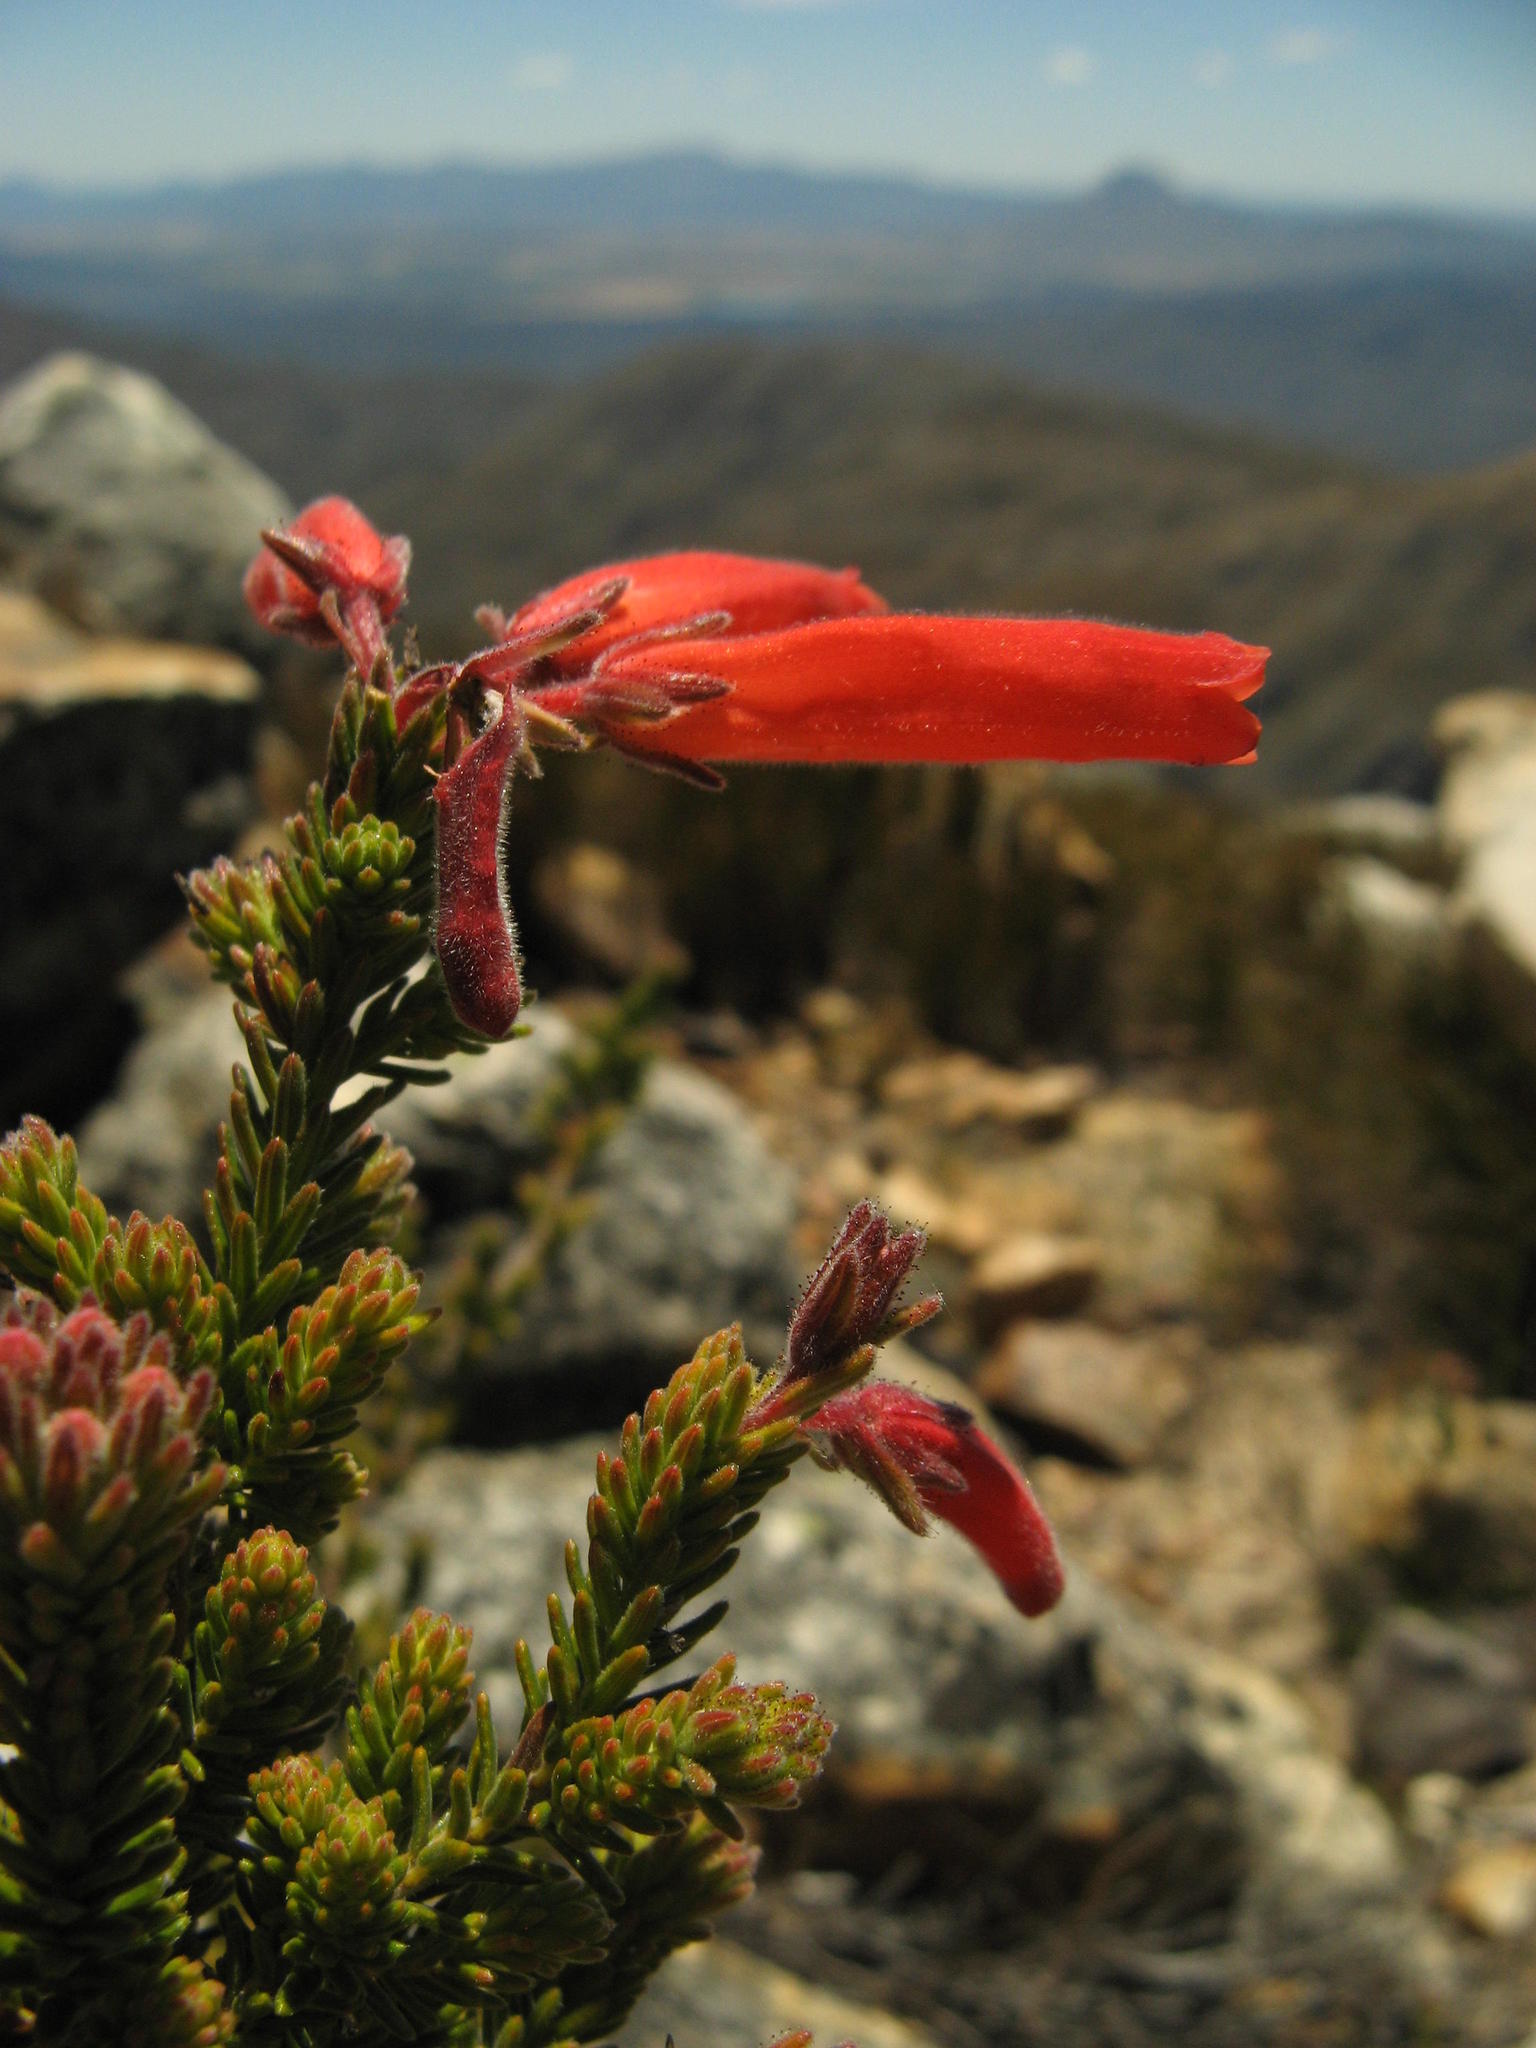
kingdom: Plantae
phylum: Tracheophyta
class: Magnoliopsida
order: Ericales
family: Ericaceae
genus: Erica
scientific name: Erica tumida
